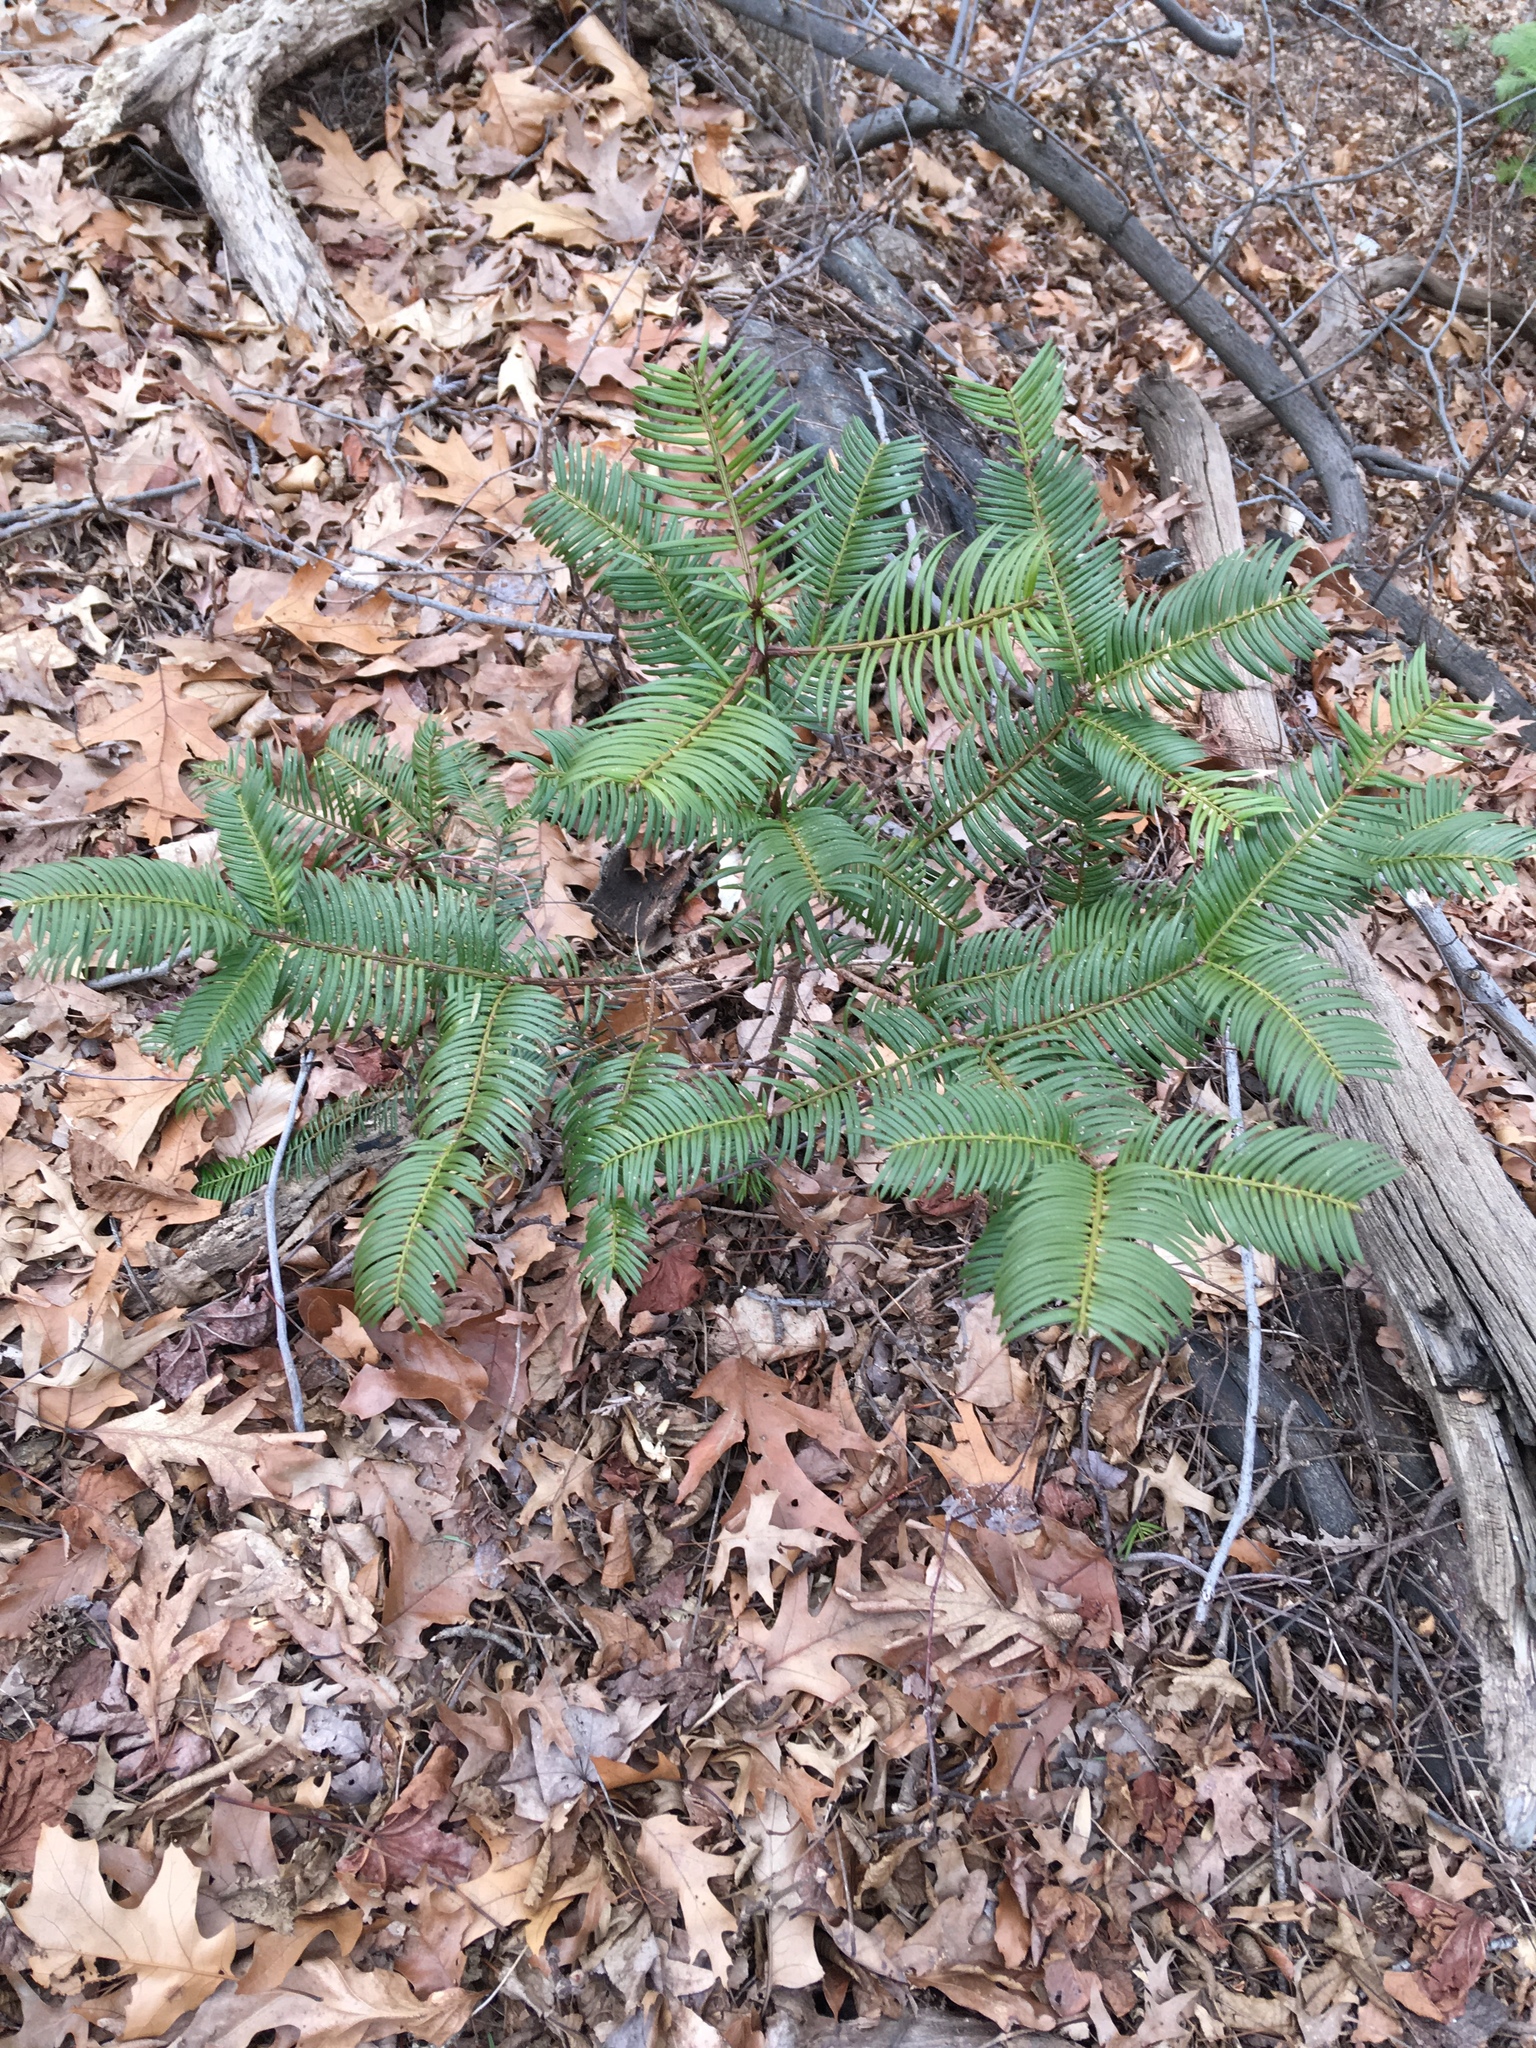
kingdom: Plantae
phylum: Tracheophyta
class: Pinopsida
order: Pinales
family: Cephalotaxaceae
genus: Cephalotaxus
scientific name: Cephalotaxus harringtonia
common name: Japanese plum-yew
